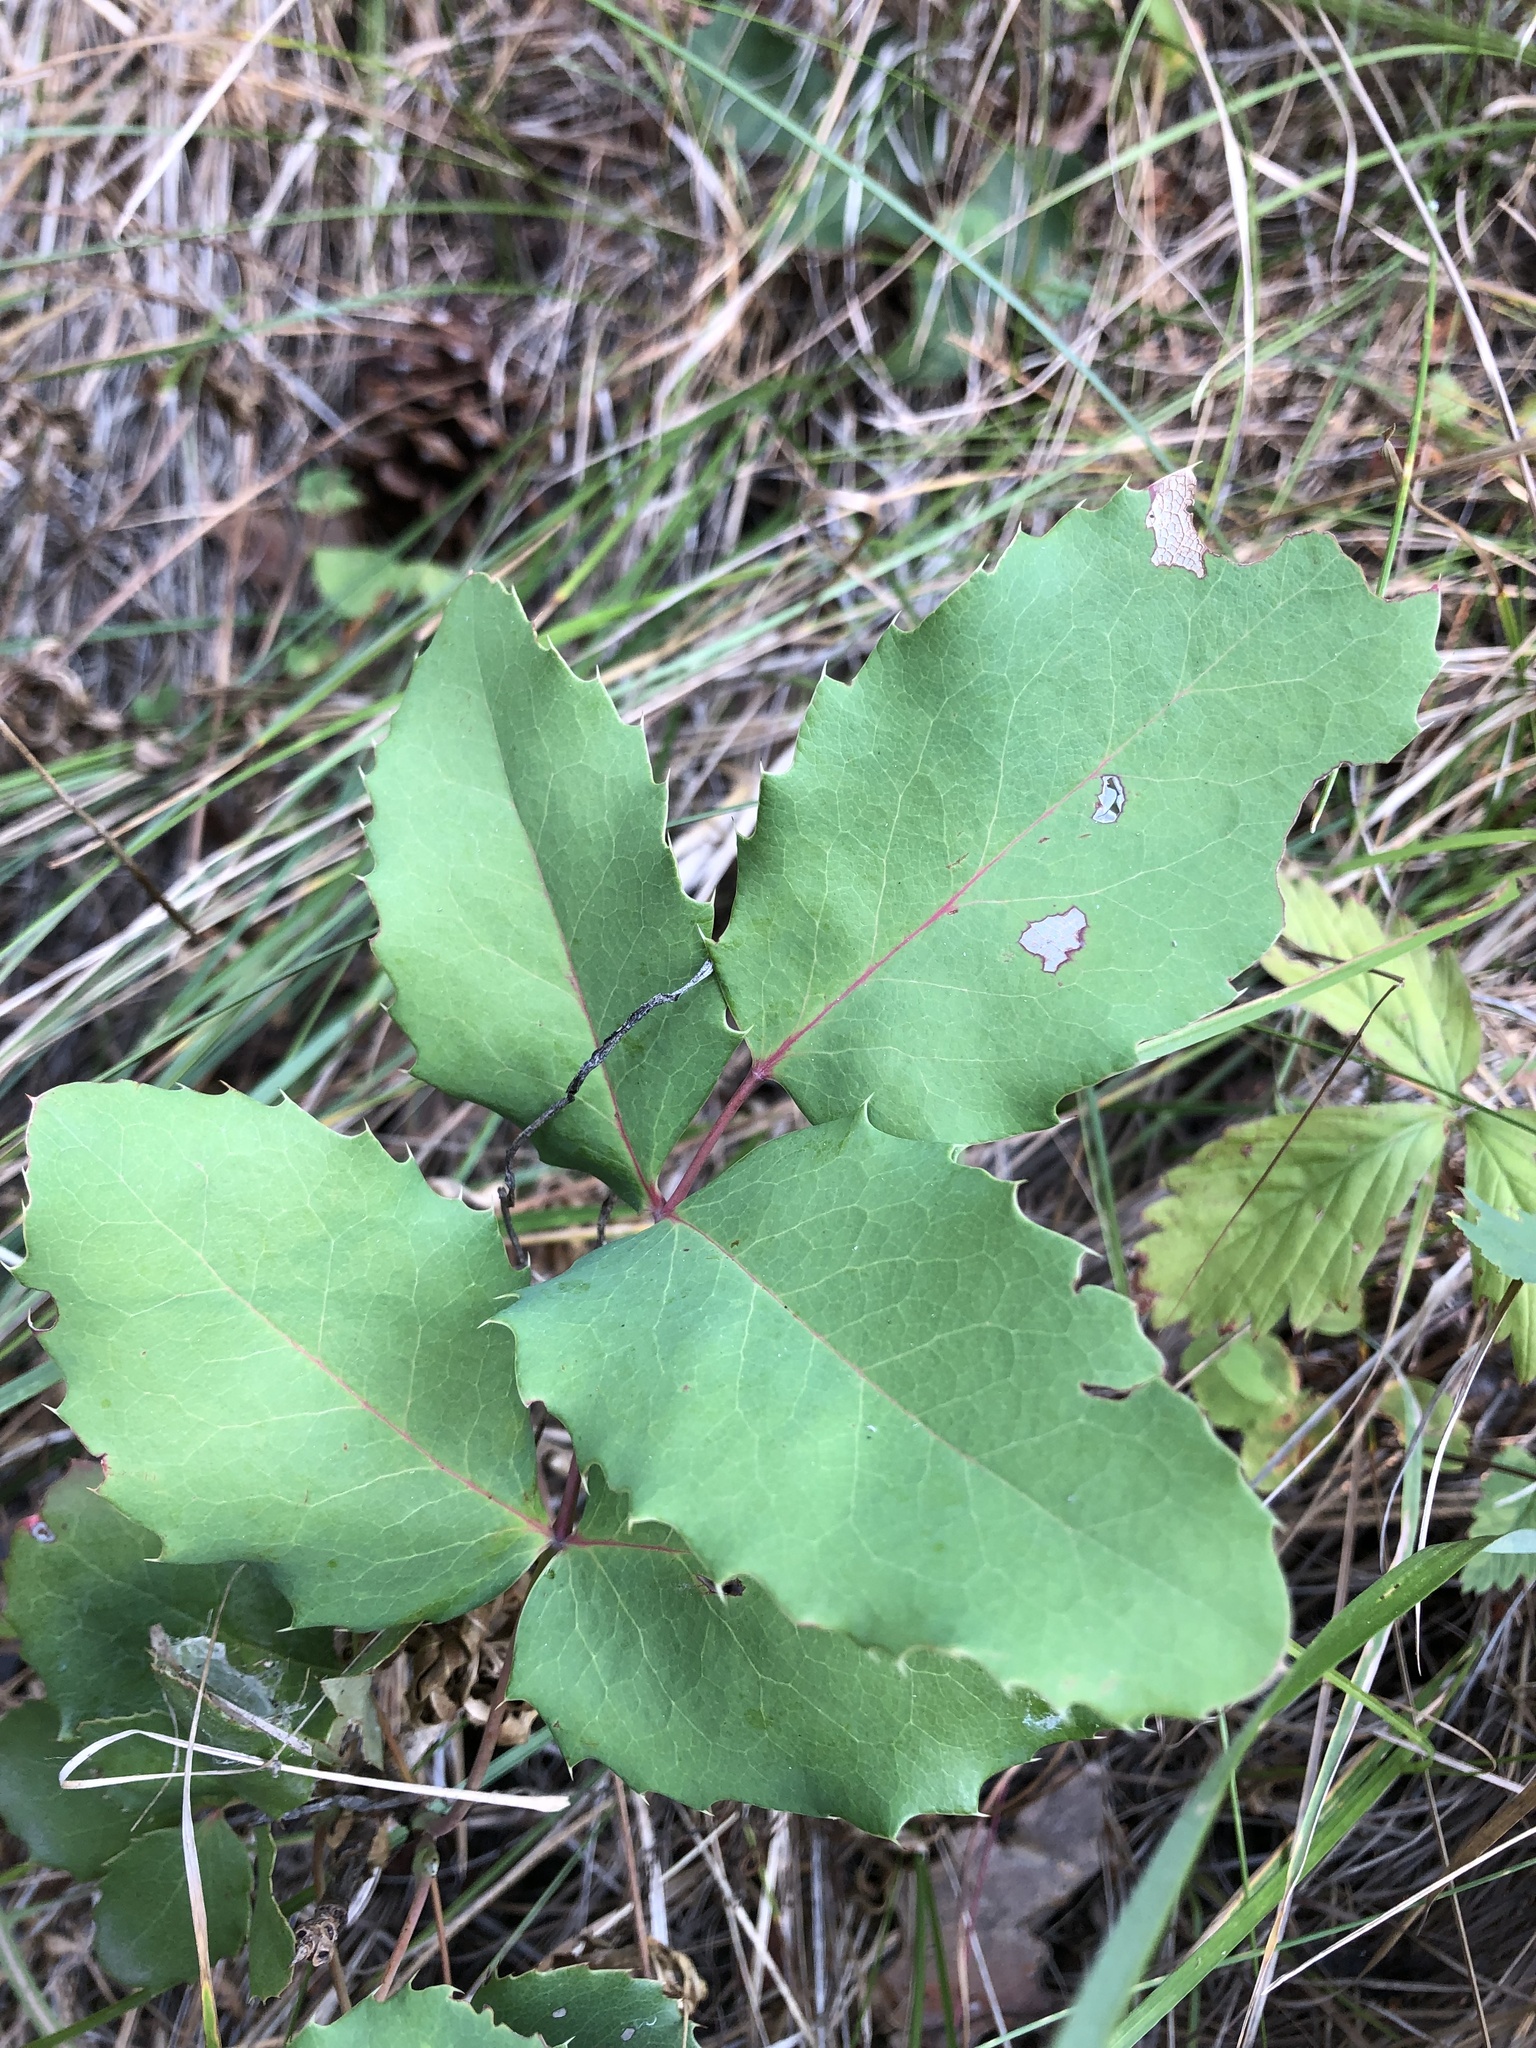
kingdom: Plantae
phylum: Tracheophyta
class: Magnoliopsida
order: Ranunculales
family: Berberidaceae
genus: Mahonia
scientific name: Mahonia repens
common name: Creeping oregon-grape
